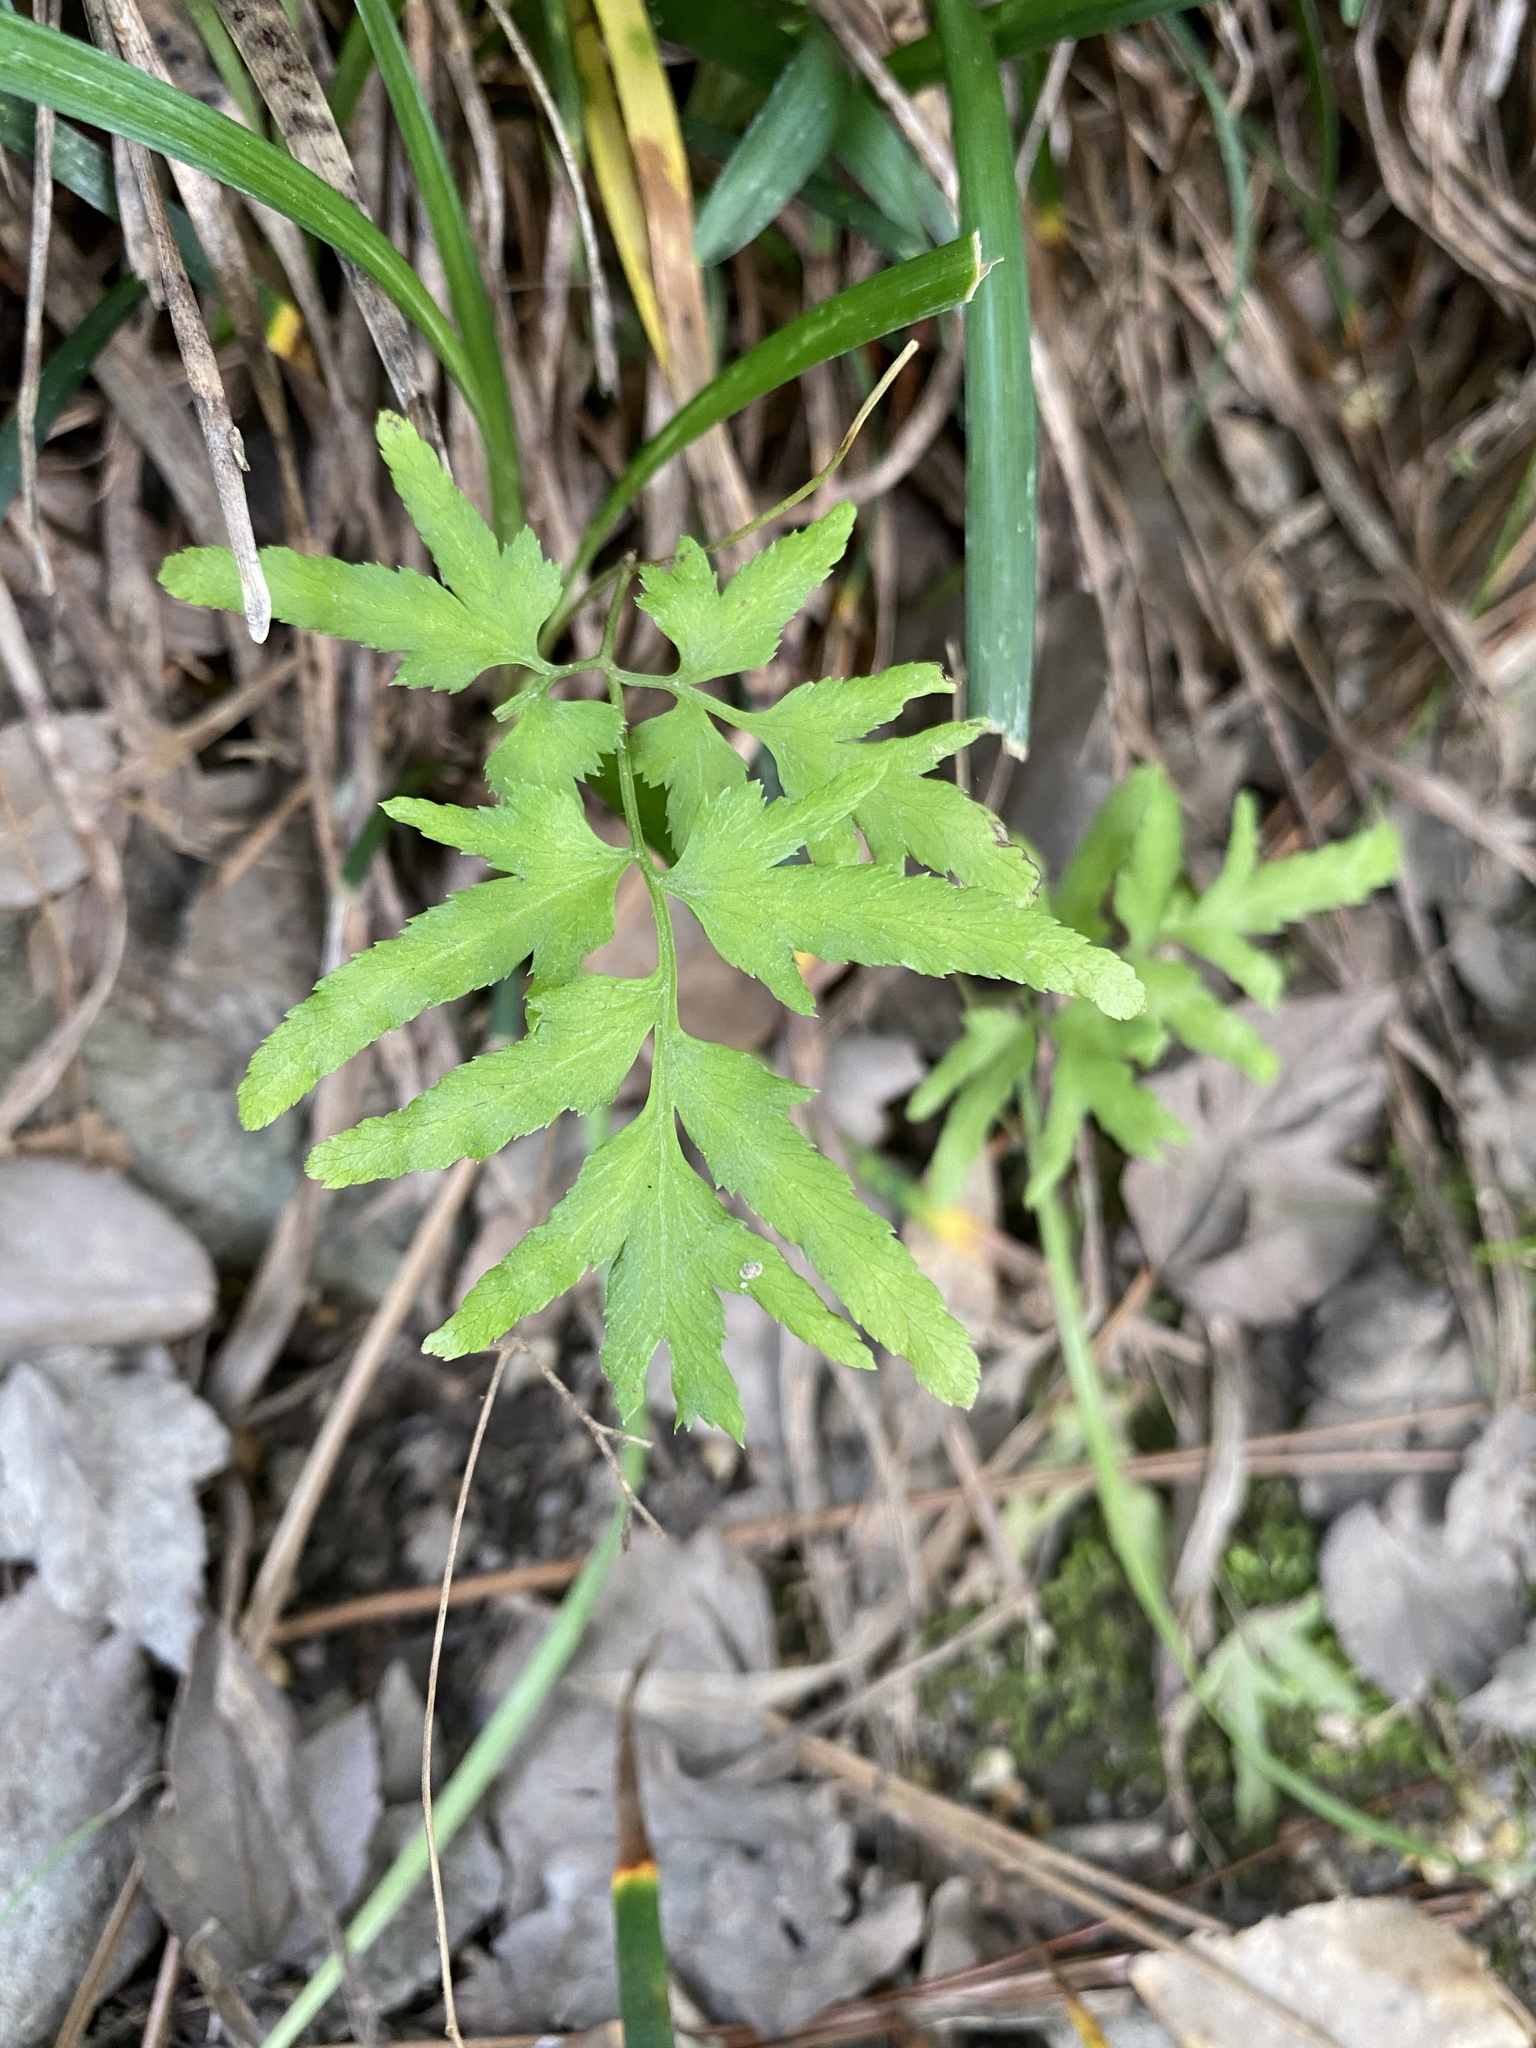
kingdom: Plantae
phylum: Tracheophyta
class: Polypodiopsida
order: Schizaeales
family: Lygodiaceae
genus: Lygodium
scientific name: Lygodium japonicum
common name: Japanese climbing fern
